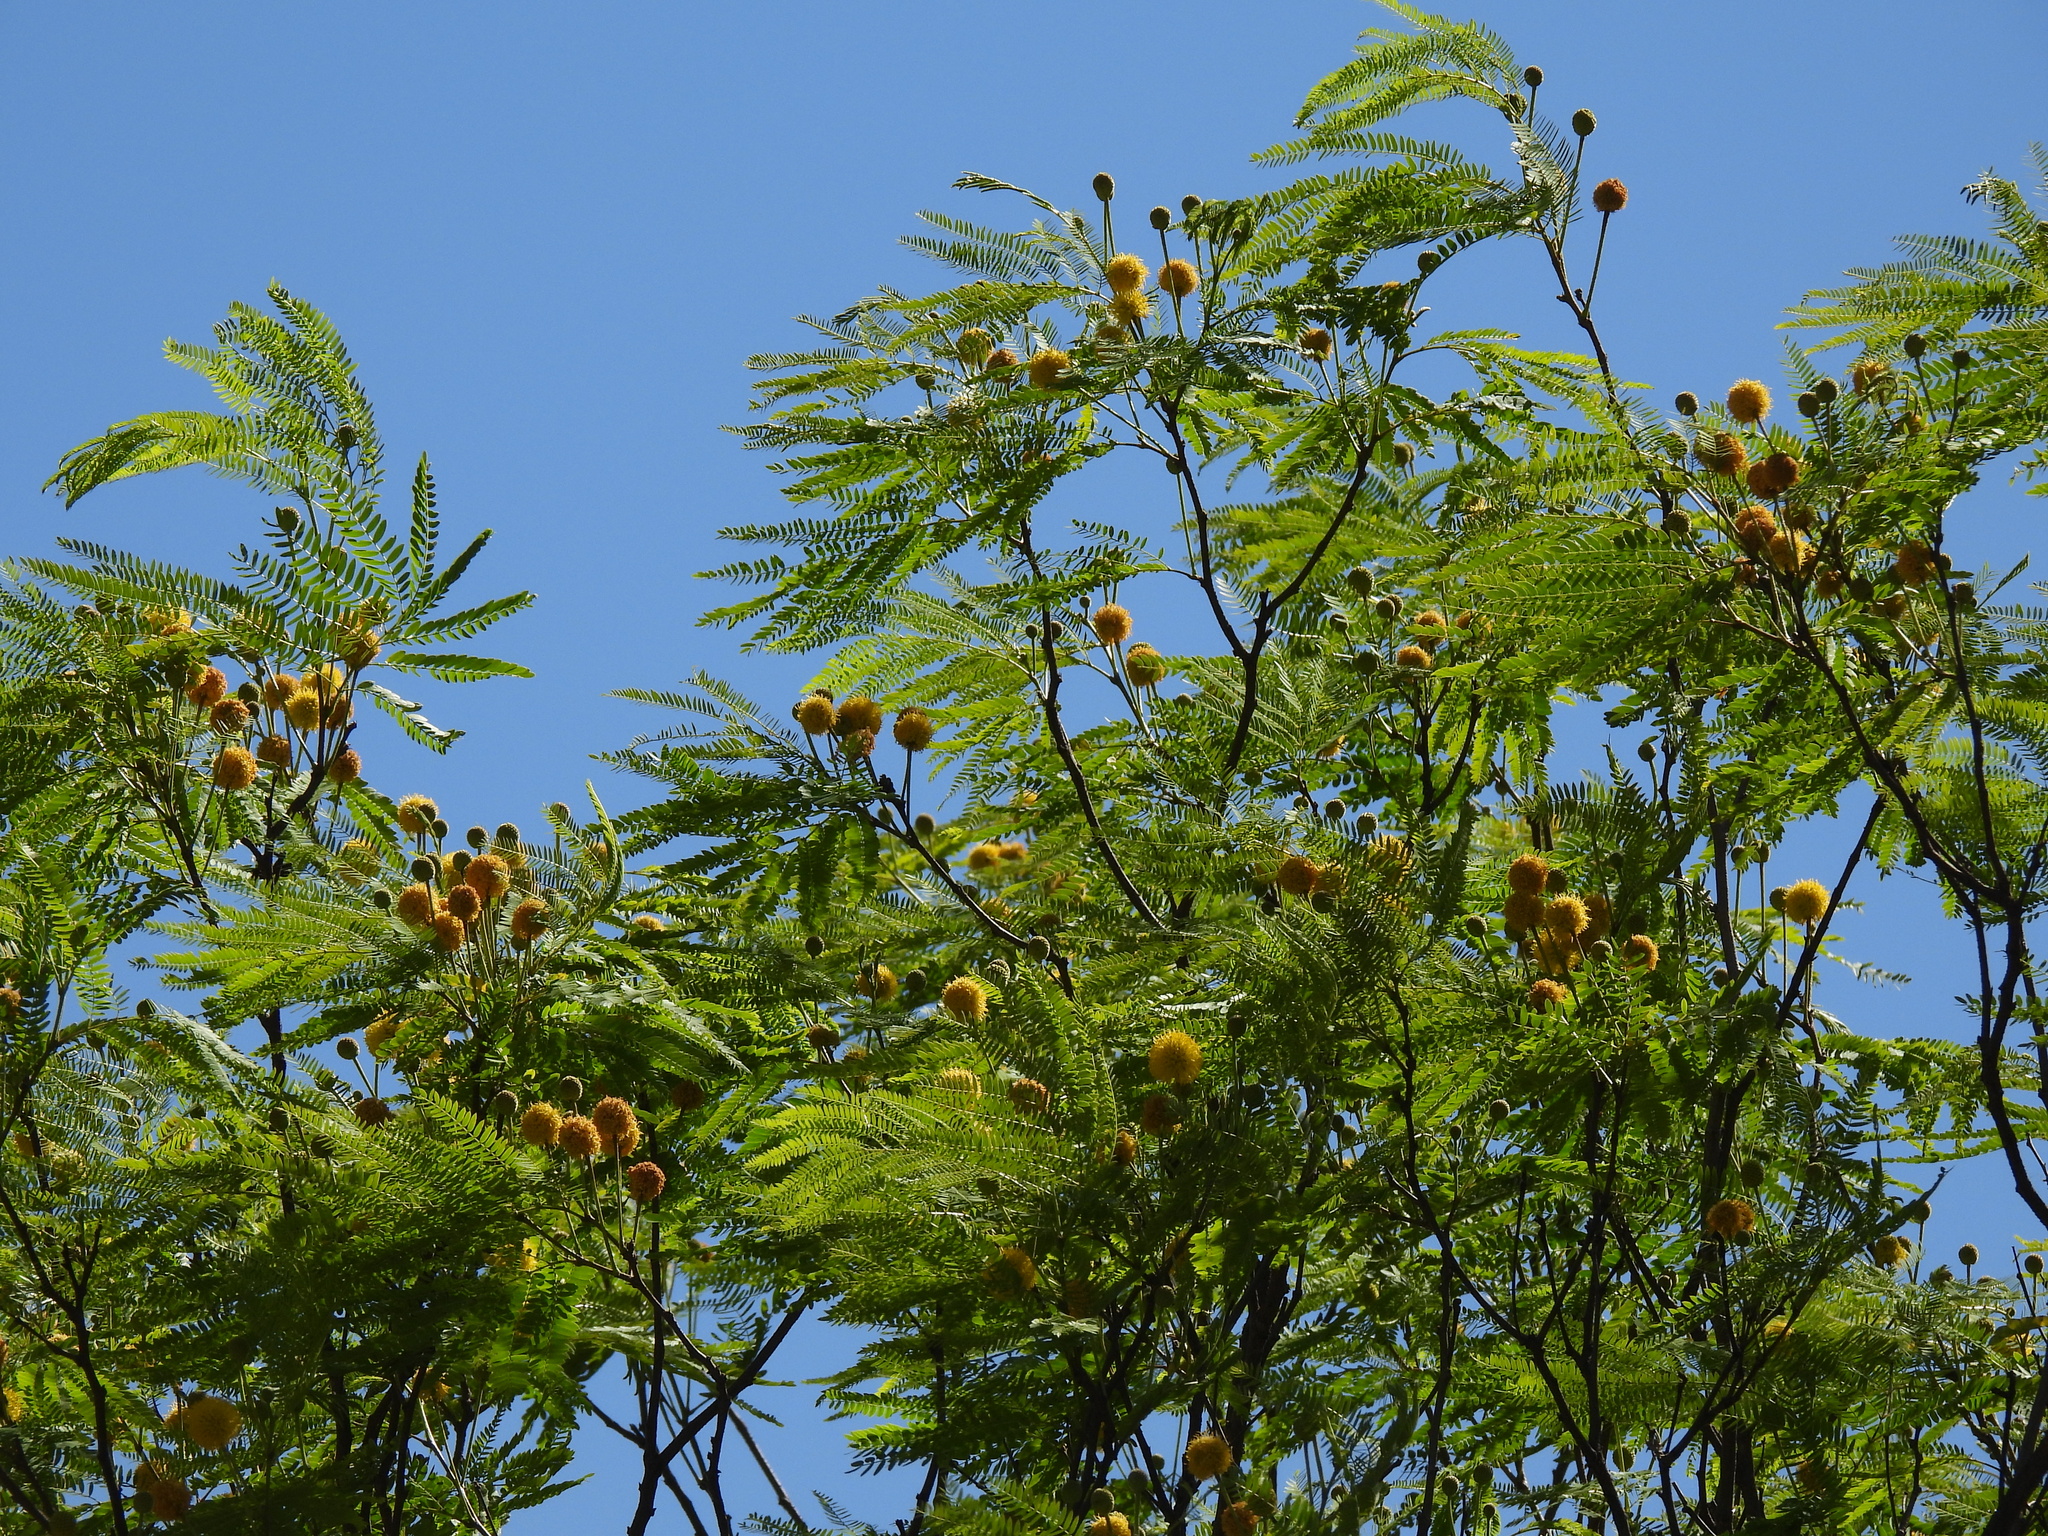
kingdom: Plantae
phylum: Tracheophyta
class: Magnoliopsida
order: Fabales
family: Fabaceae
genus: Leucaena
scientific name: Leucaena greggii
